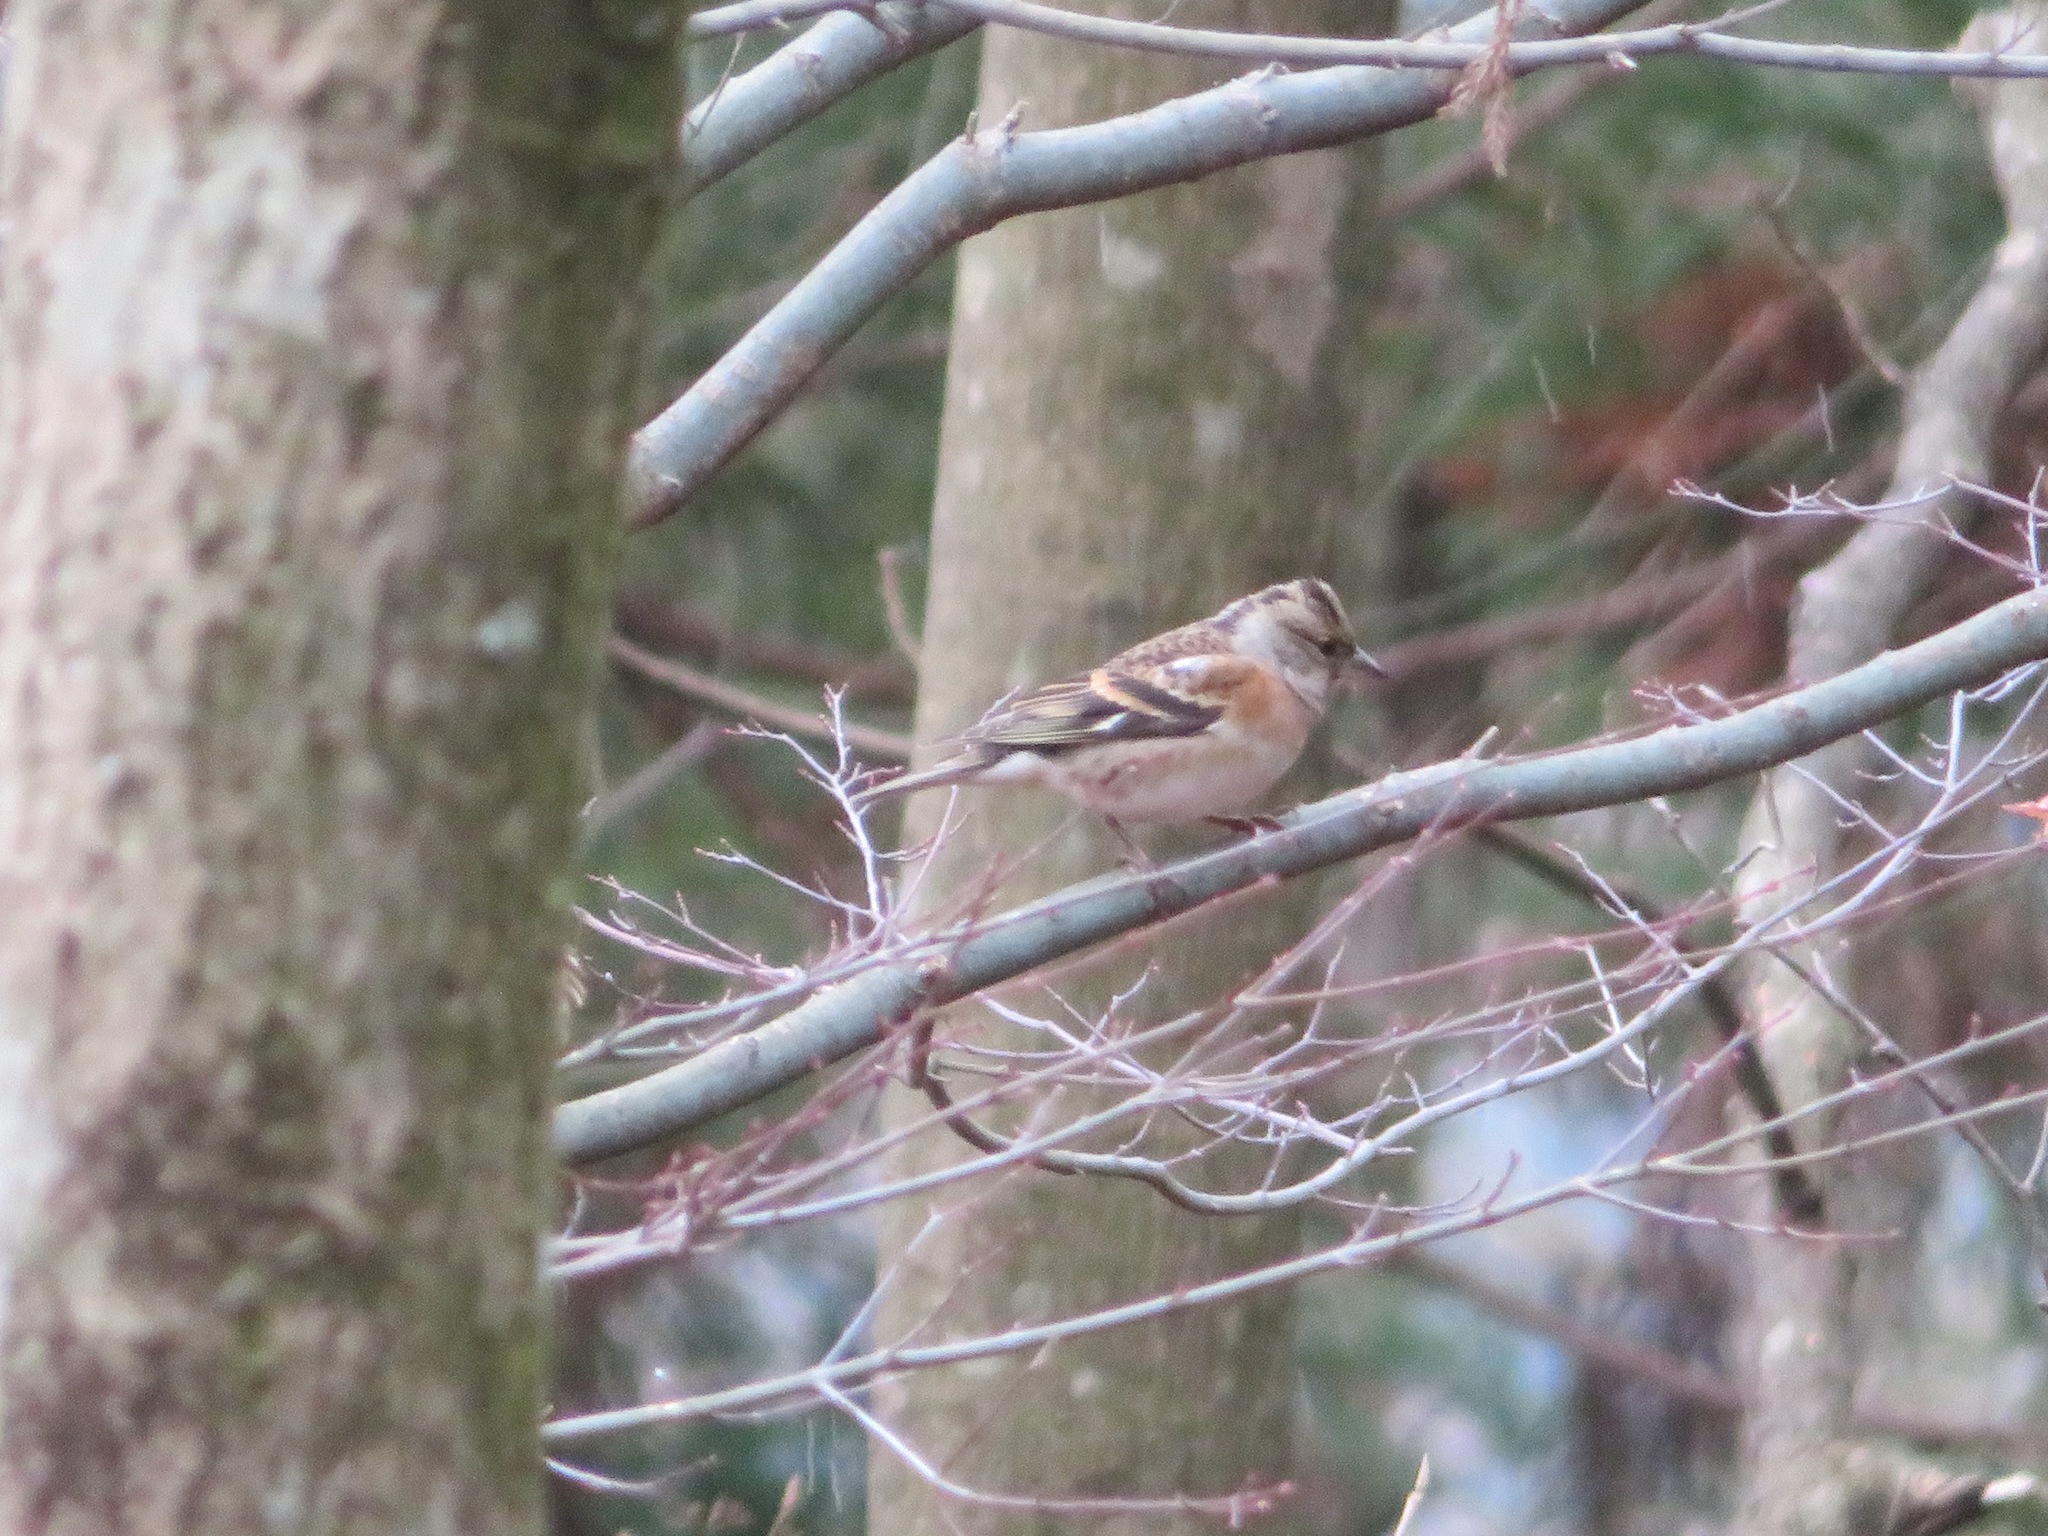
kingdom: Animalia
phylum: Chordata
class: Aves
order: Passeriformes
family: Fringillidae
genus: Fringilla
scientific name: Fringilla montifringilla
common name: Brambling
